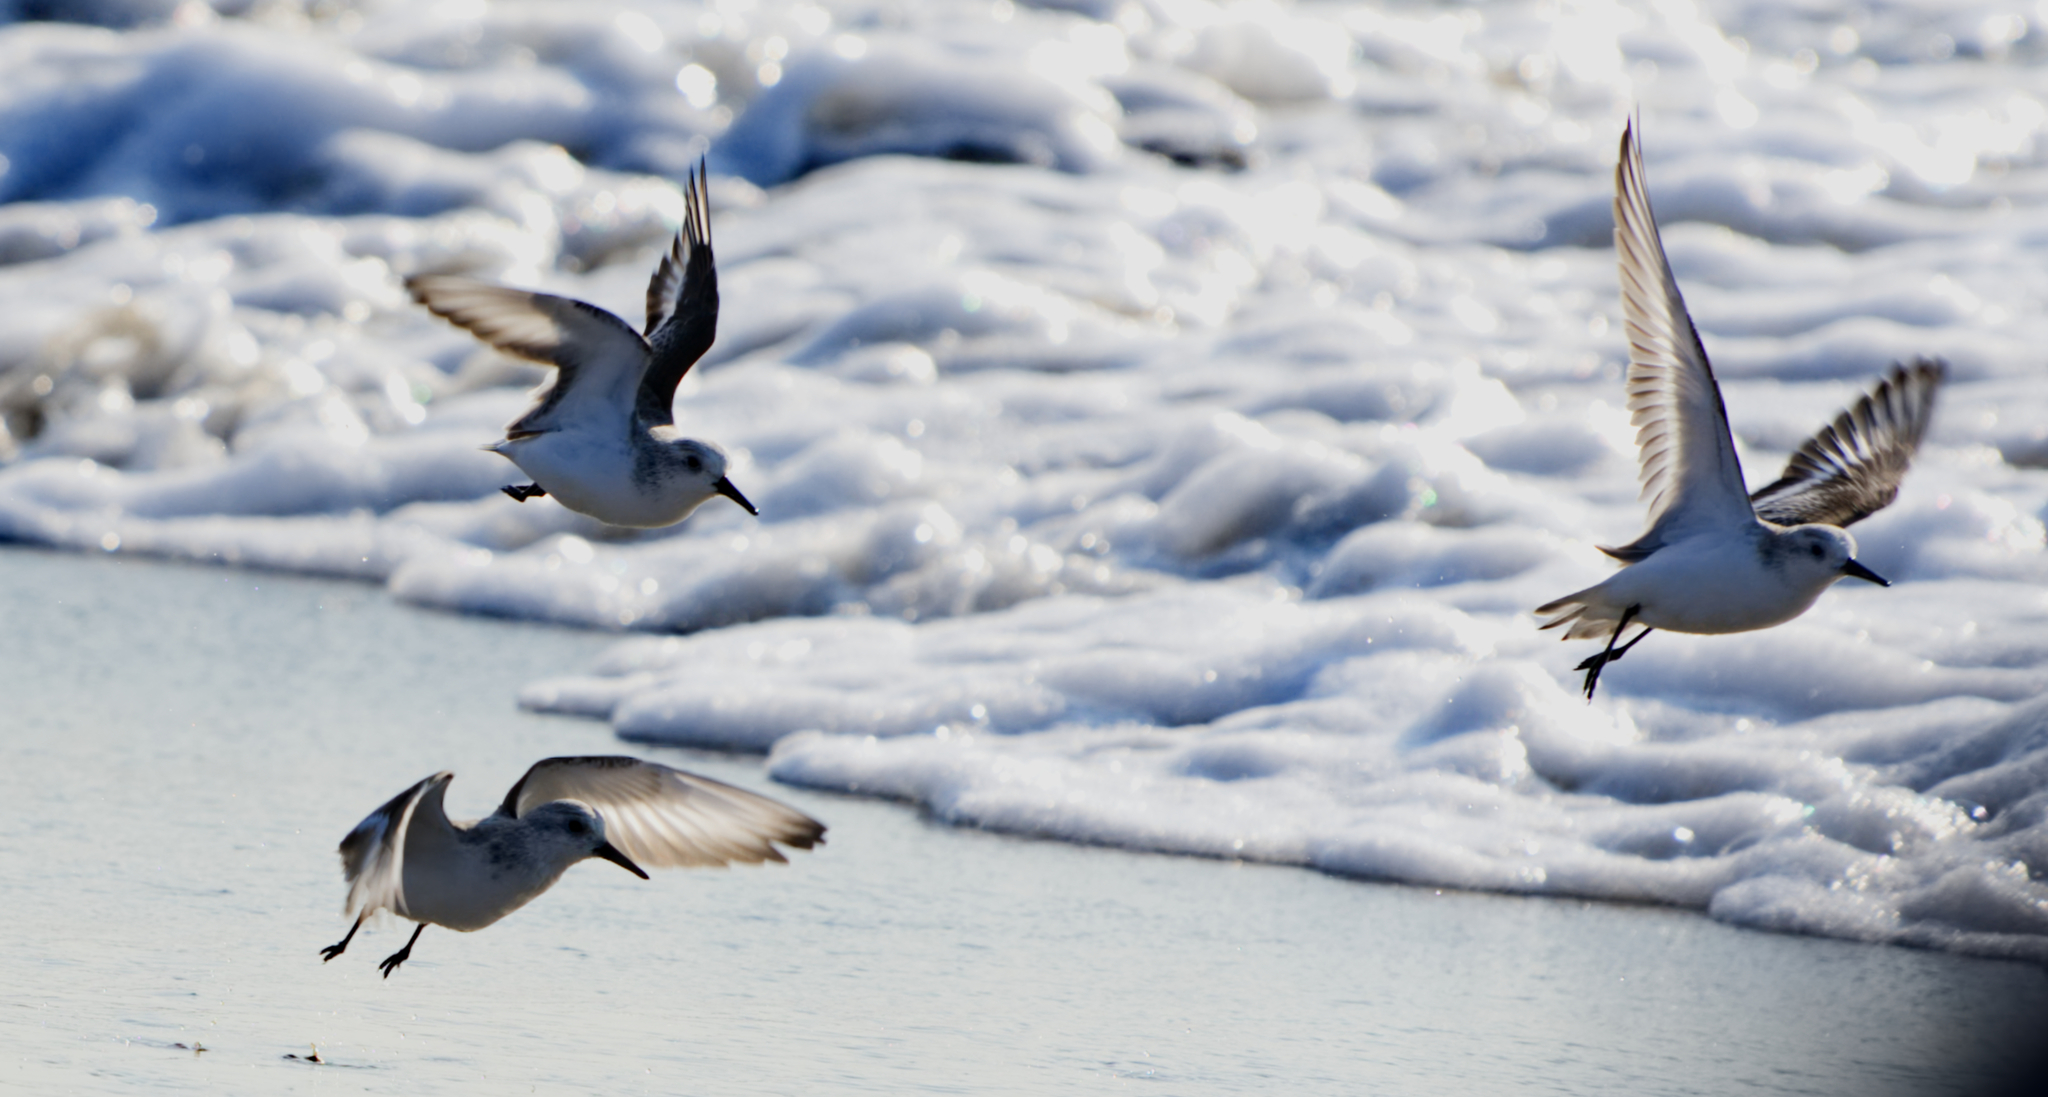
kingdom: Animalia
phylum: Chordata
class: Aves
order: Charadriiformes
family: Scolopacidae
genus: Calidris
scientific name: Calidris alba
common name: Sanderling
